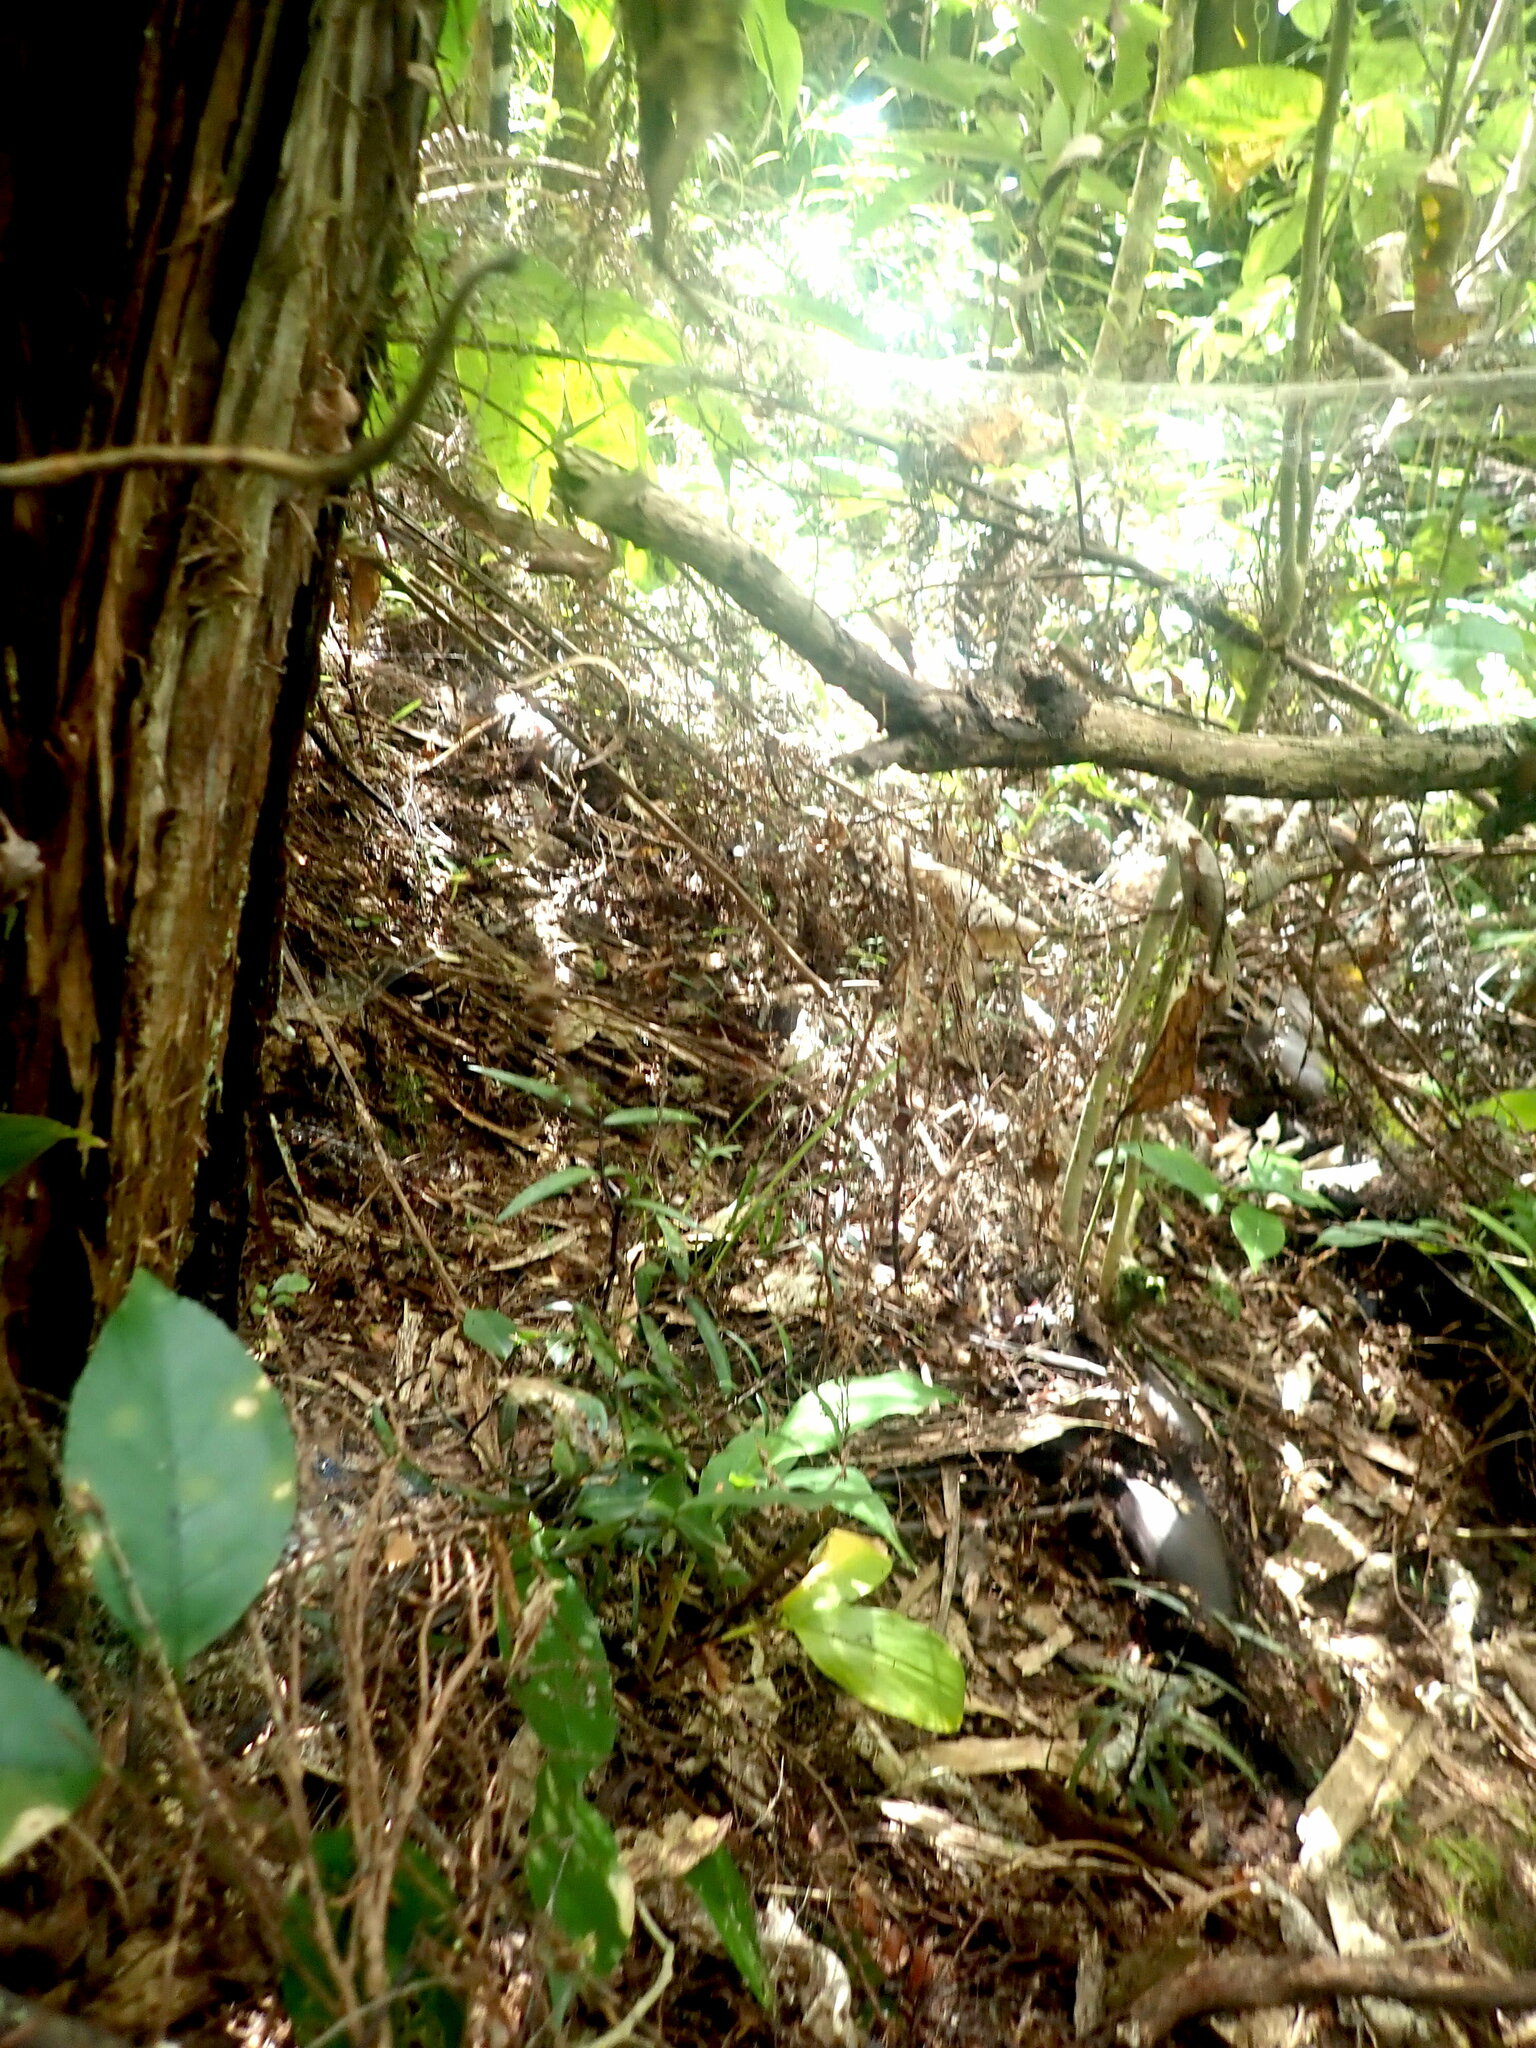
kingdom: Plantae
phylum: Tracheophyta
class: Pinopsida
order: Pinales
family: Araucariaceae
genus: Agathis
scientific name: Agathis australis
